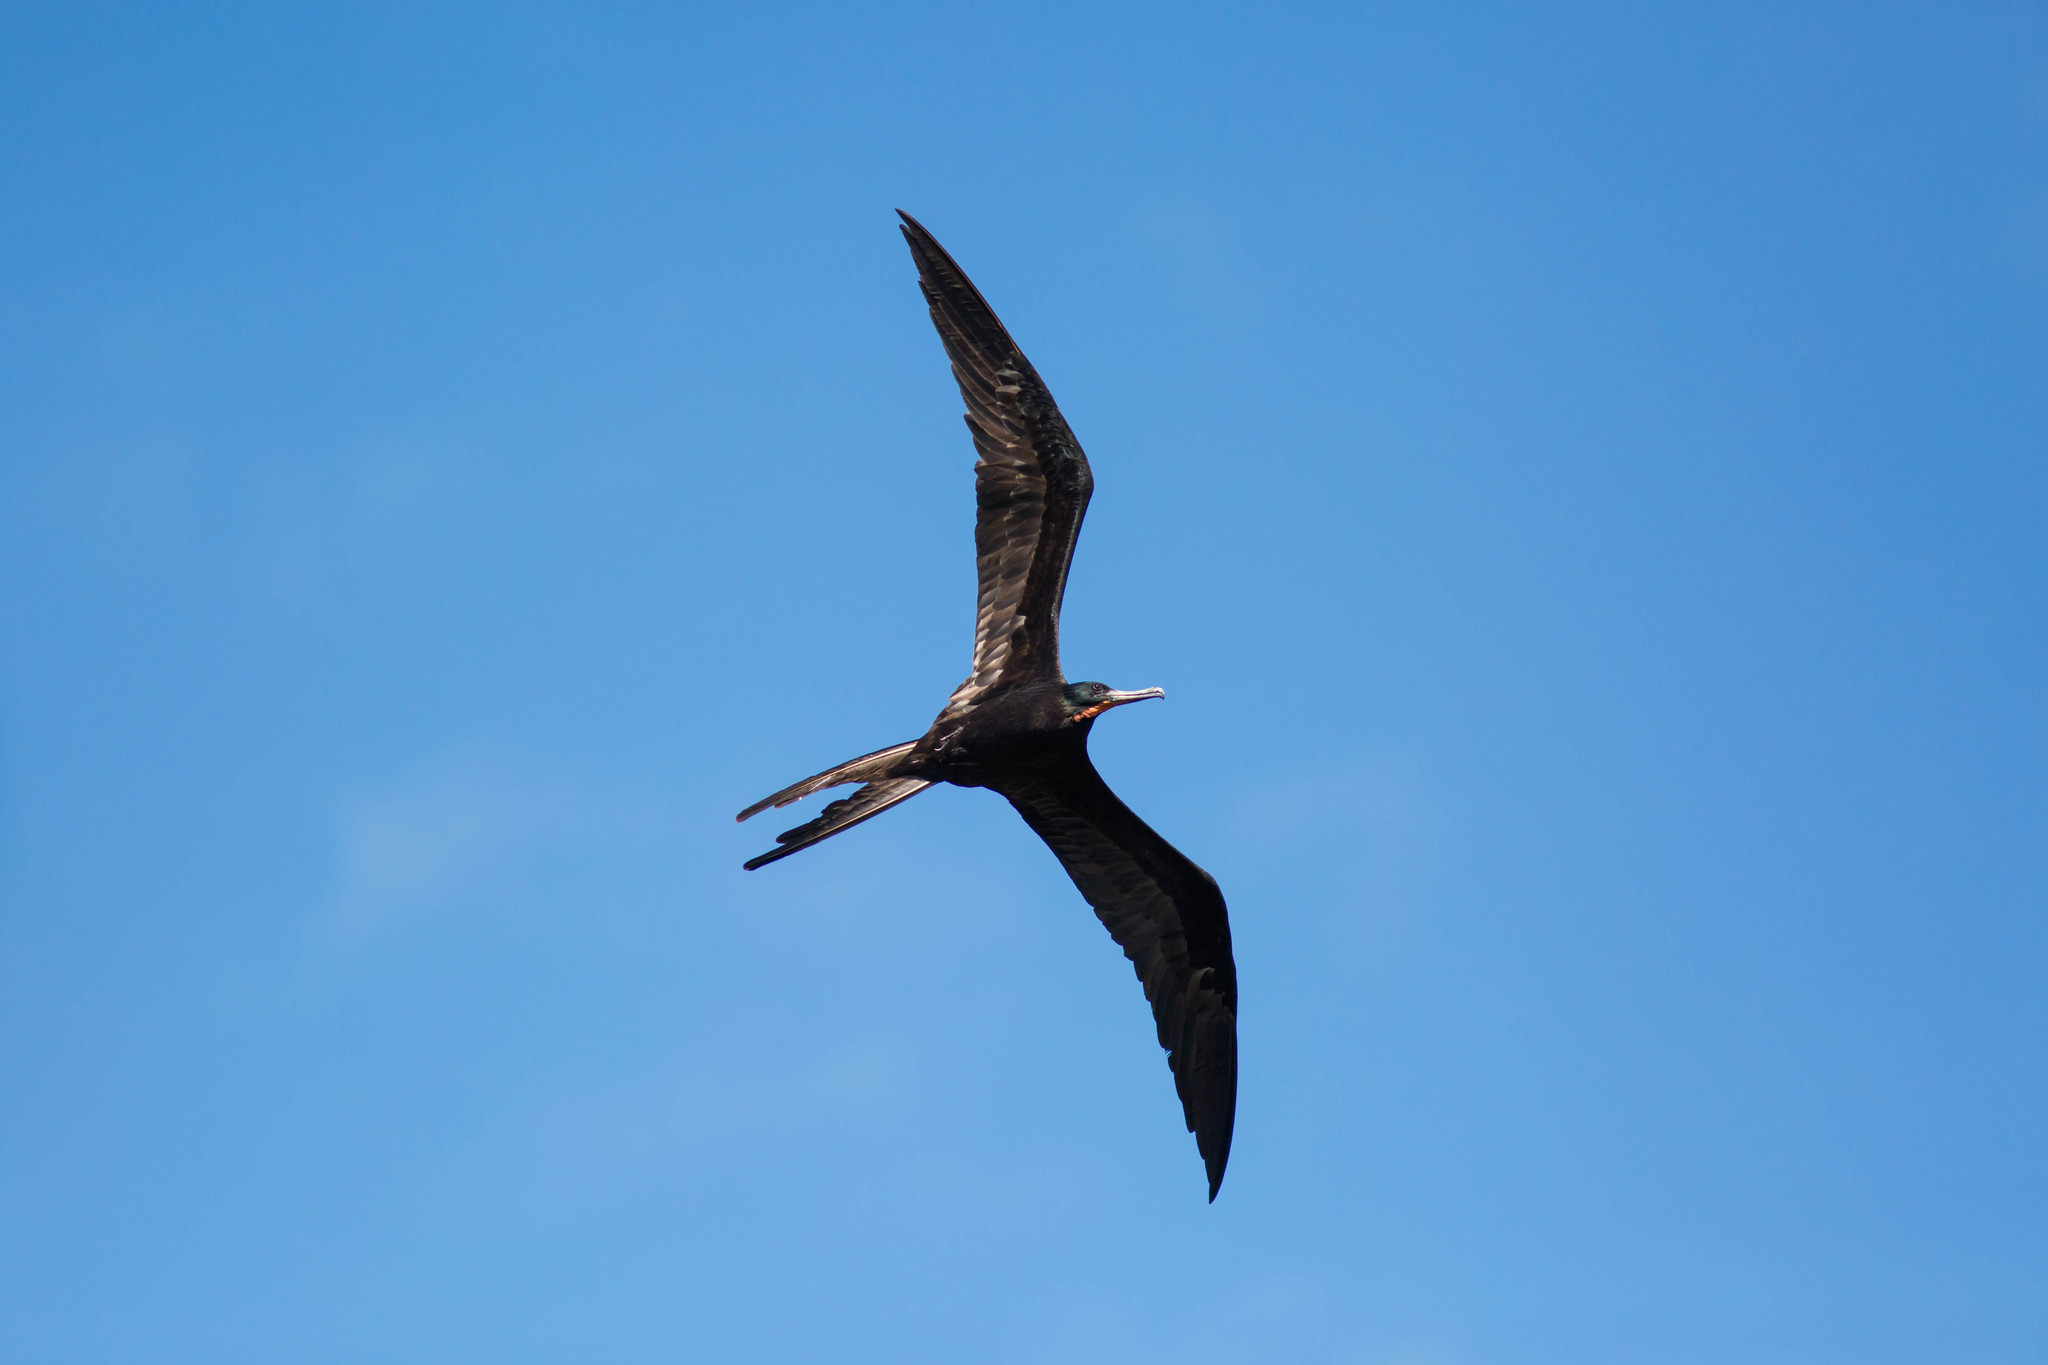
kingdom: Animalia
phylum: Chordata
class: Aves
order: Suliformes
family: Fregatidae
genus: Fregata
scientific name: Fregata magnificens
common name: Magnificent frigatebird
